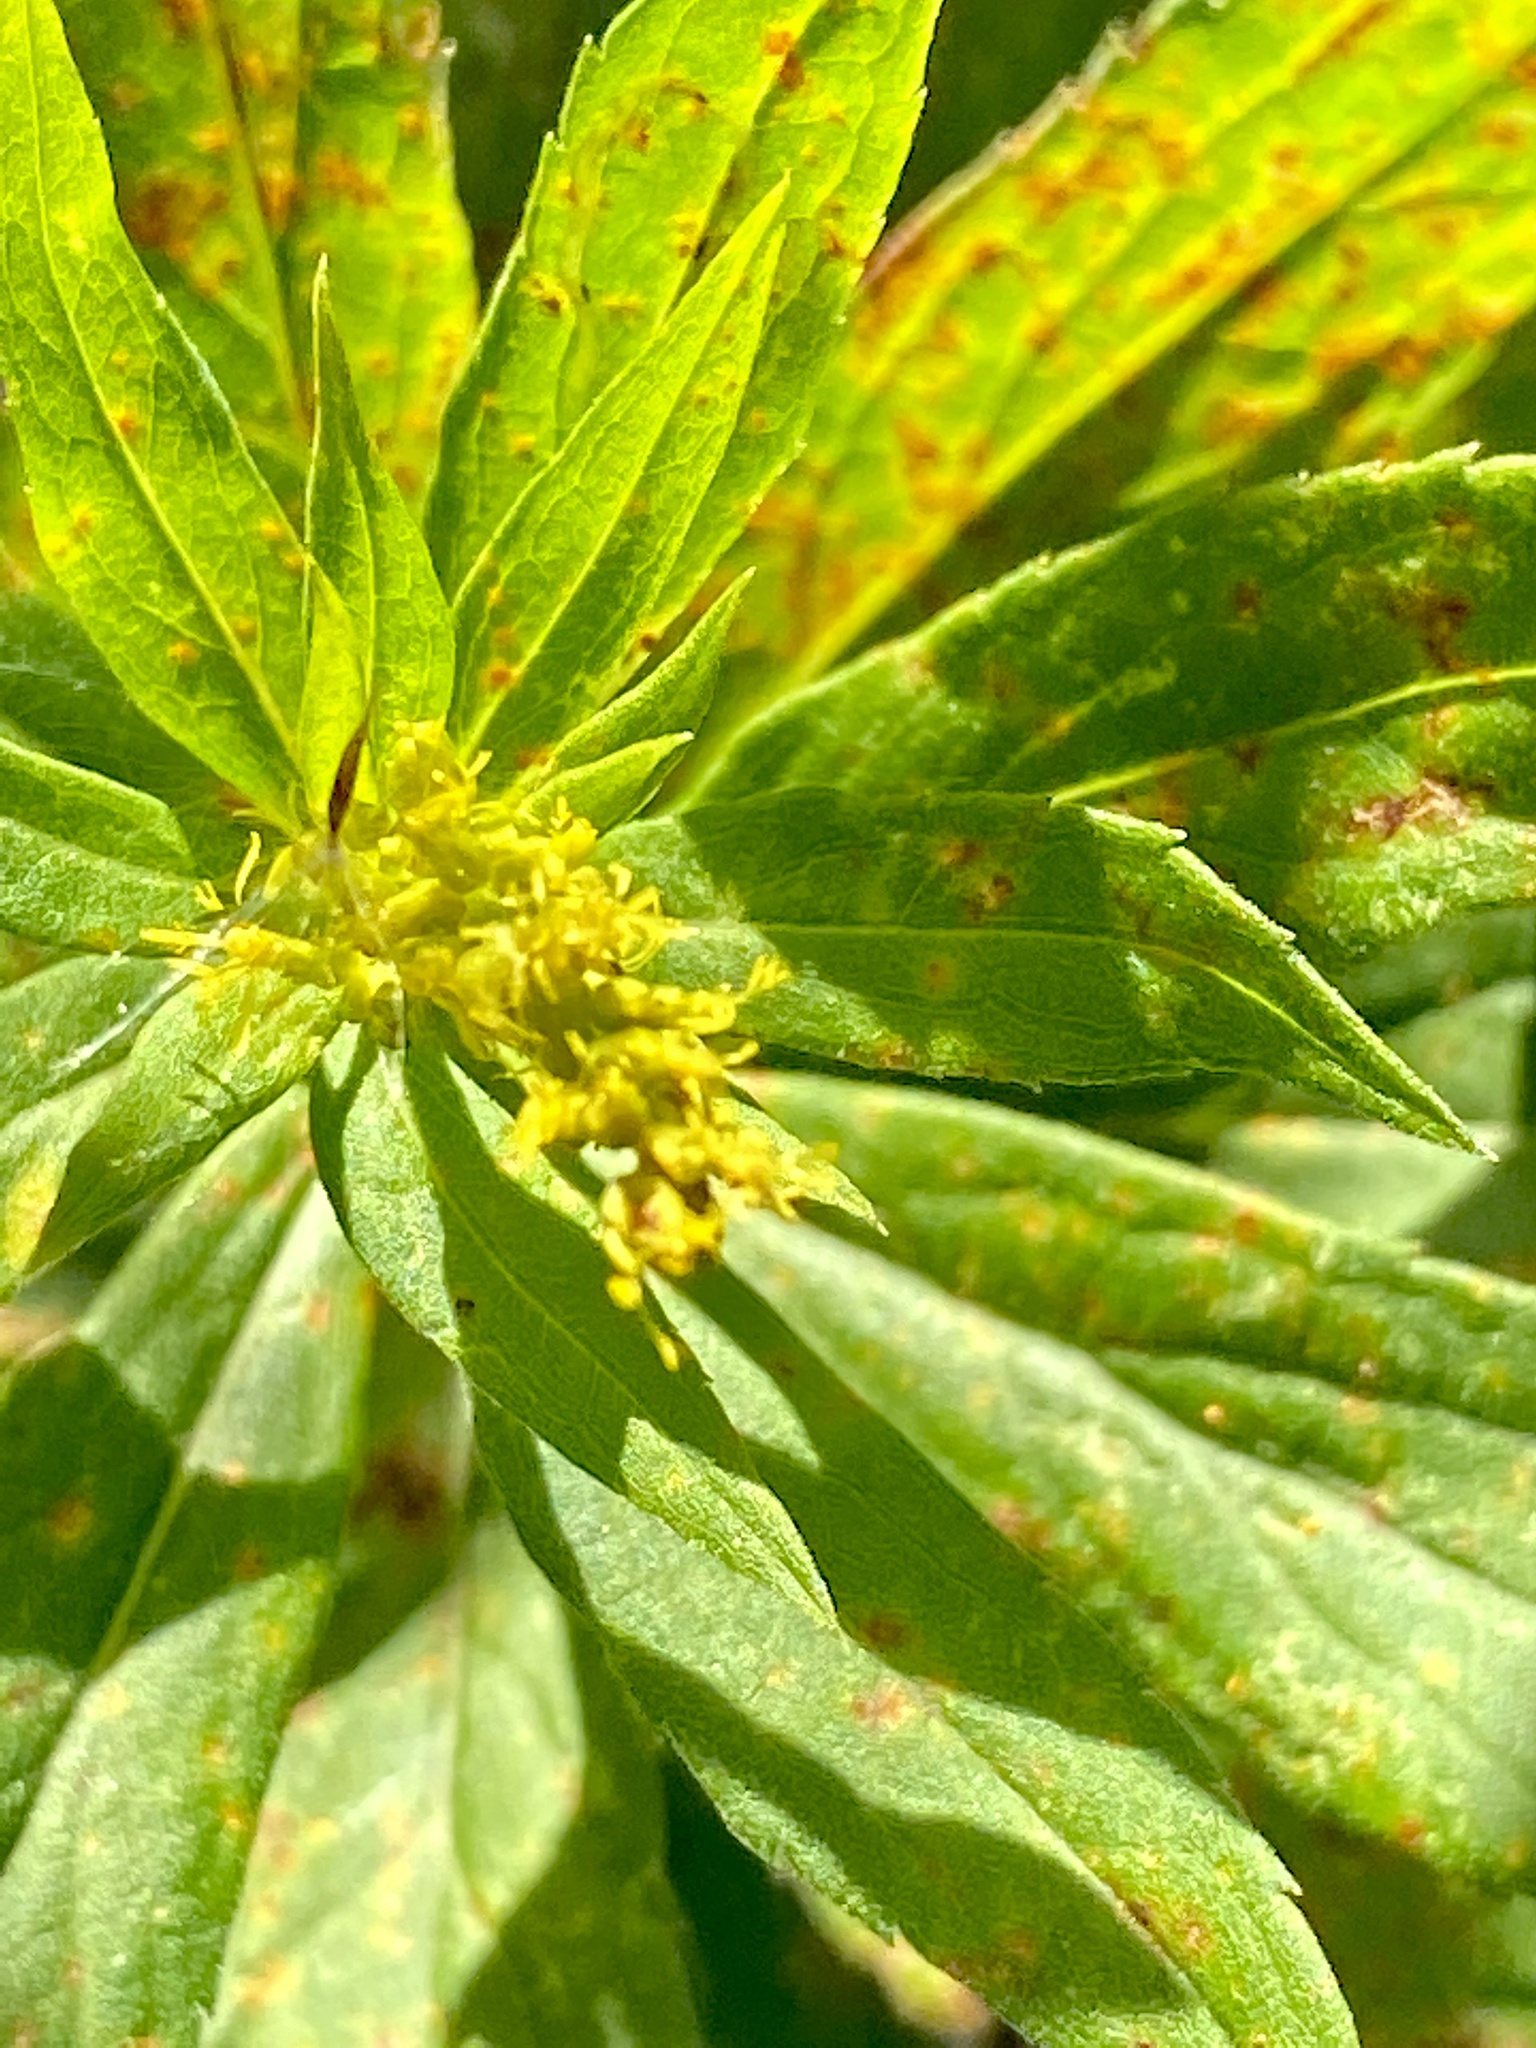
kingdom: Fungi
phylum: Basidiomycota
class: Pucciniomycetes
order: Pucciniales
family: Coleosporiaceae
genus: Coleosporium
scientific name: Coleosporium asterum
